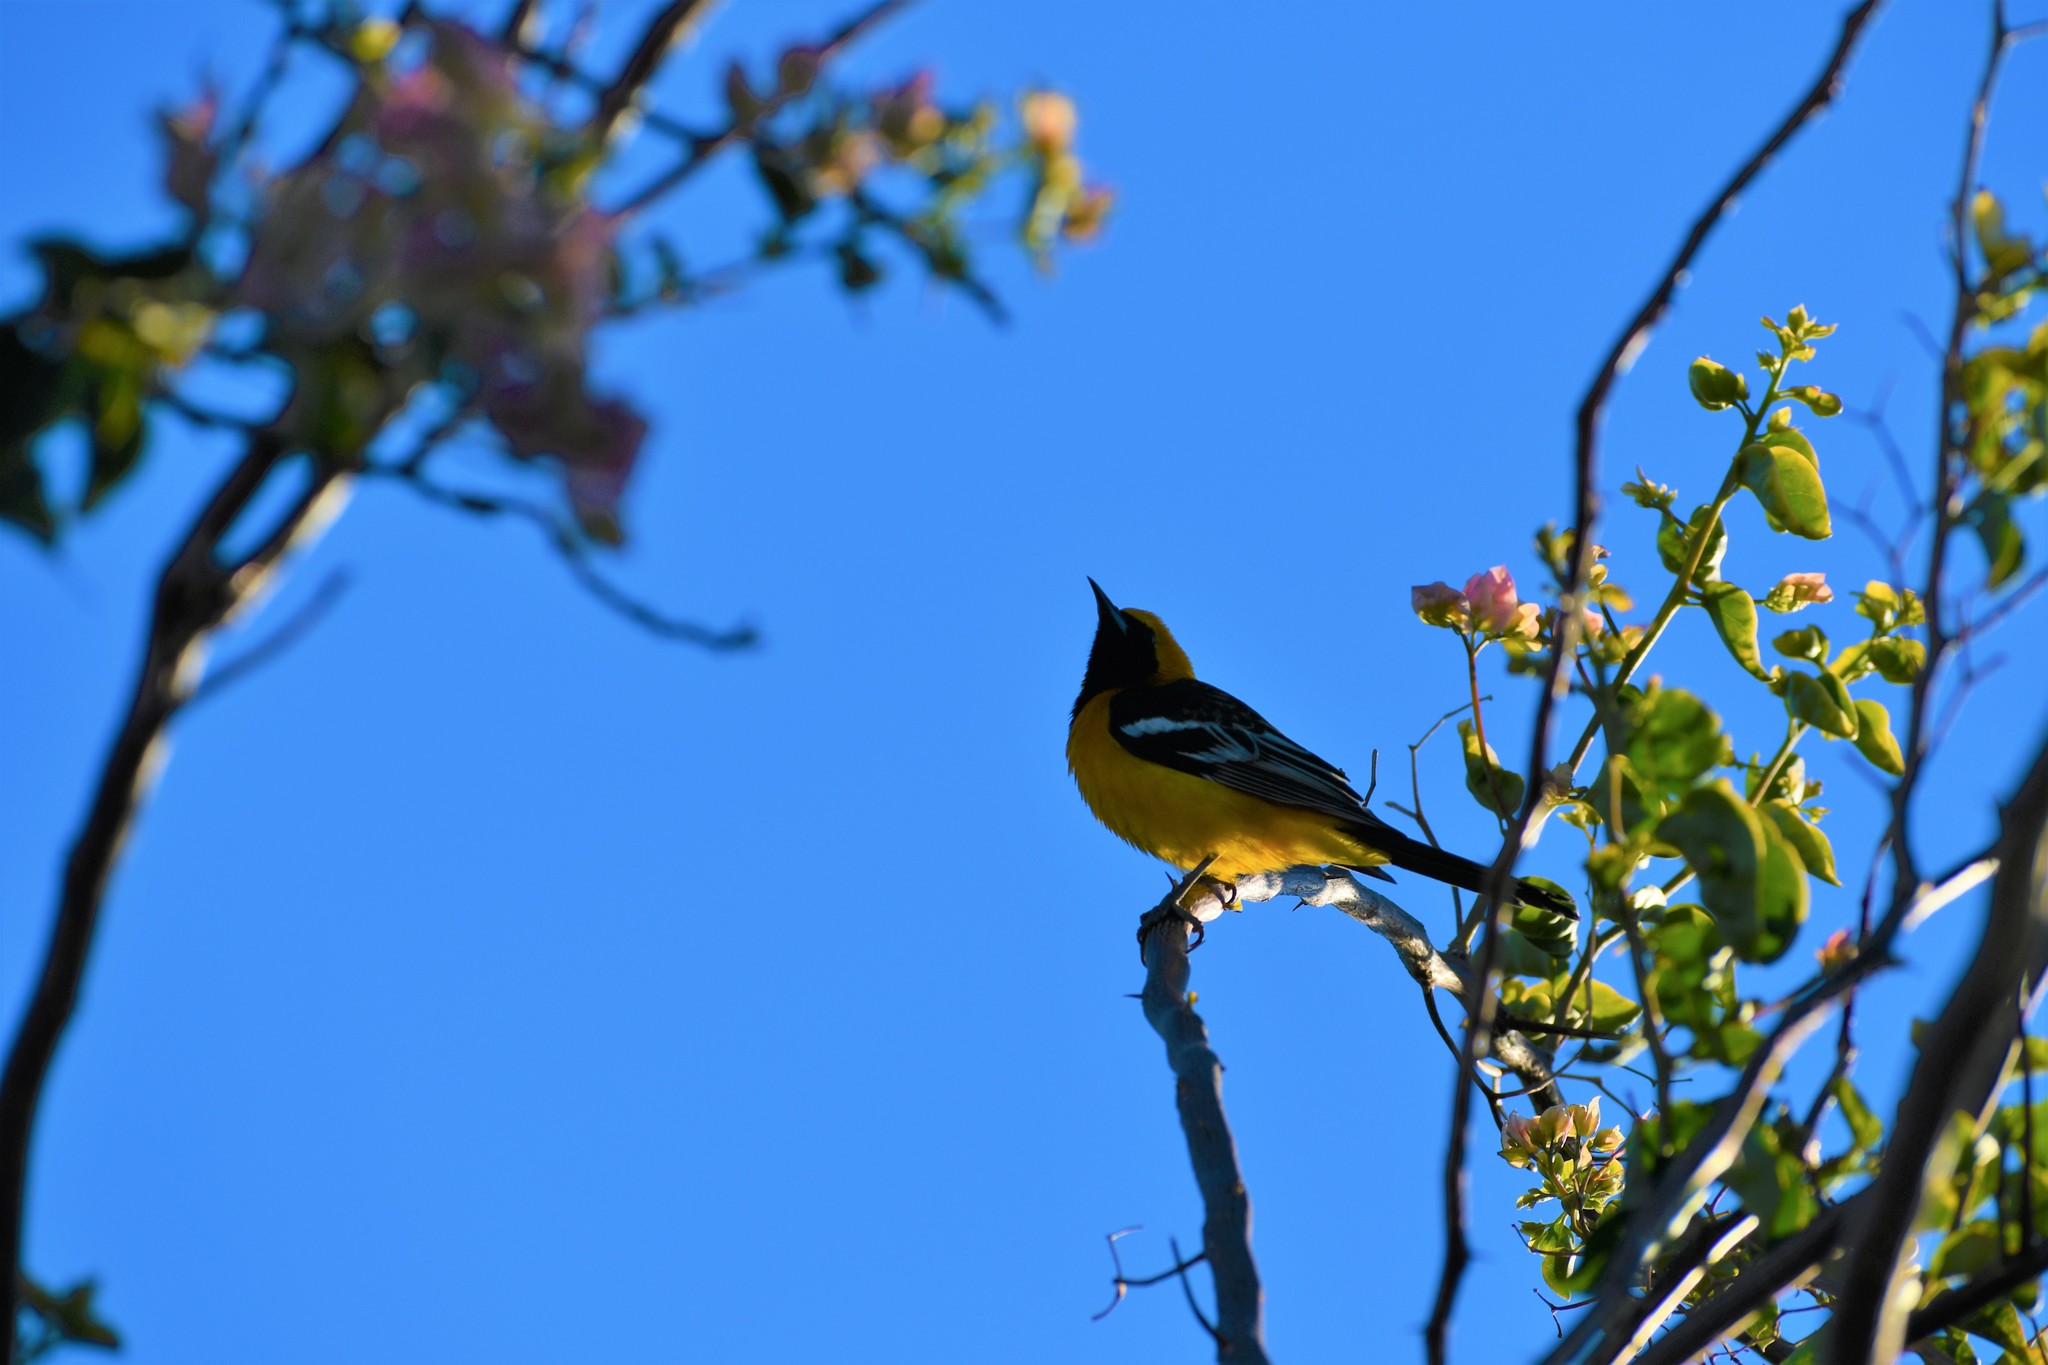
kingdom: Animalia
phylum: Chordata
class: Aves
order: Passeriformes
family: Icteridae
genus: Icterus
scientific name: Icterus cucullatus
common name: Hooded oriole
